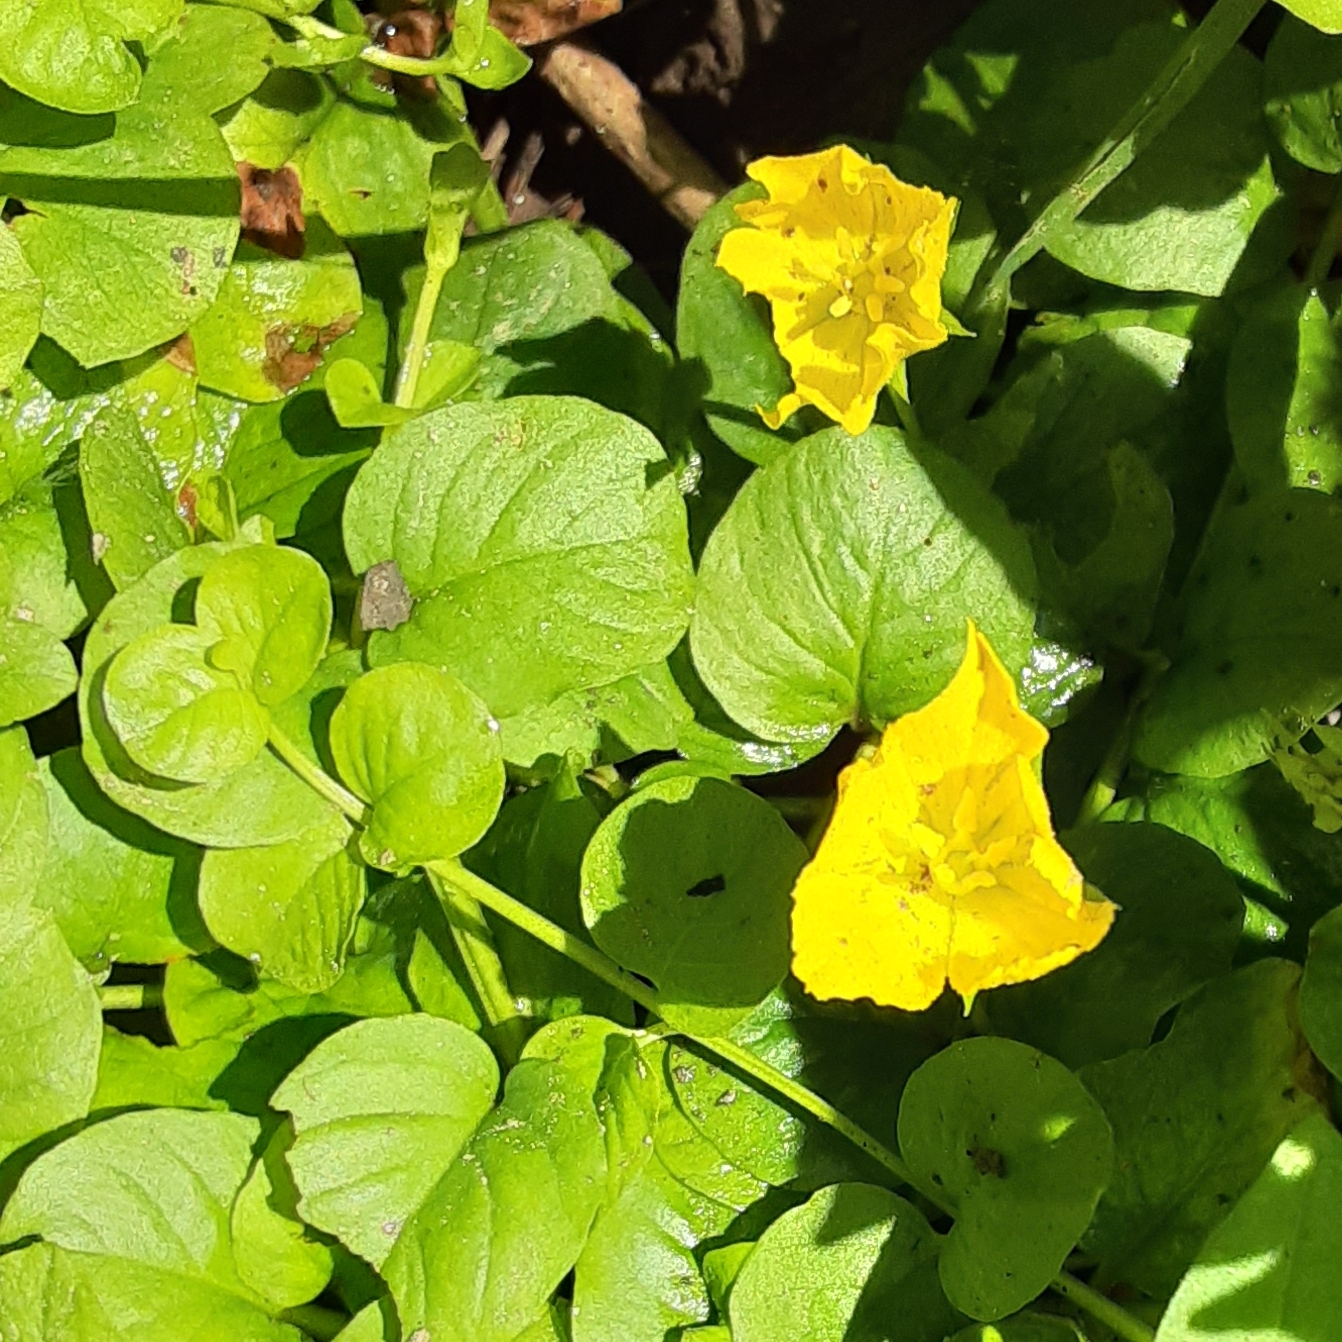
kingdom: Plantae
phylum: Tracheophyta
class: Magnoliopsida
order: Ericales
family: Primulaceae
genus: Lysimachia
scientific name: Lysimachia nummularia
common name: Moneywort
